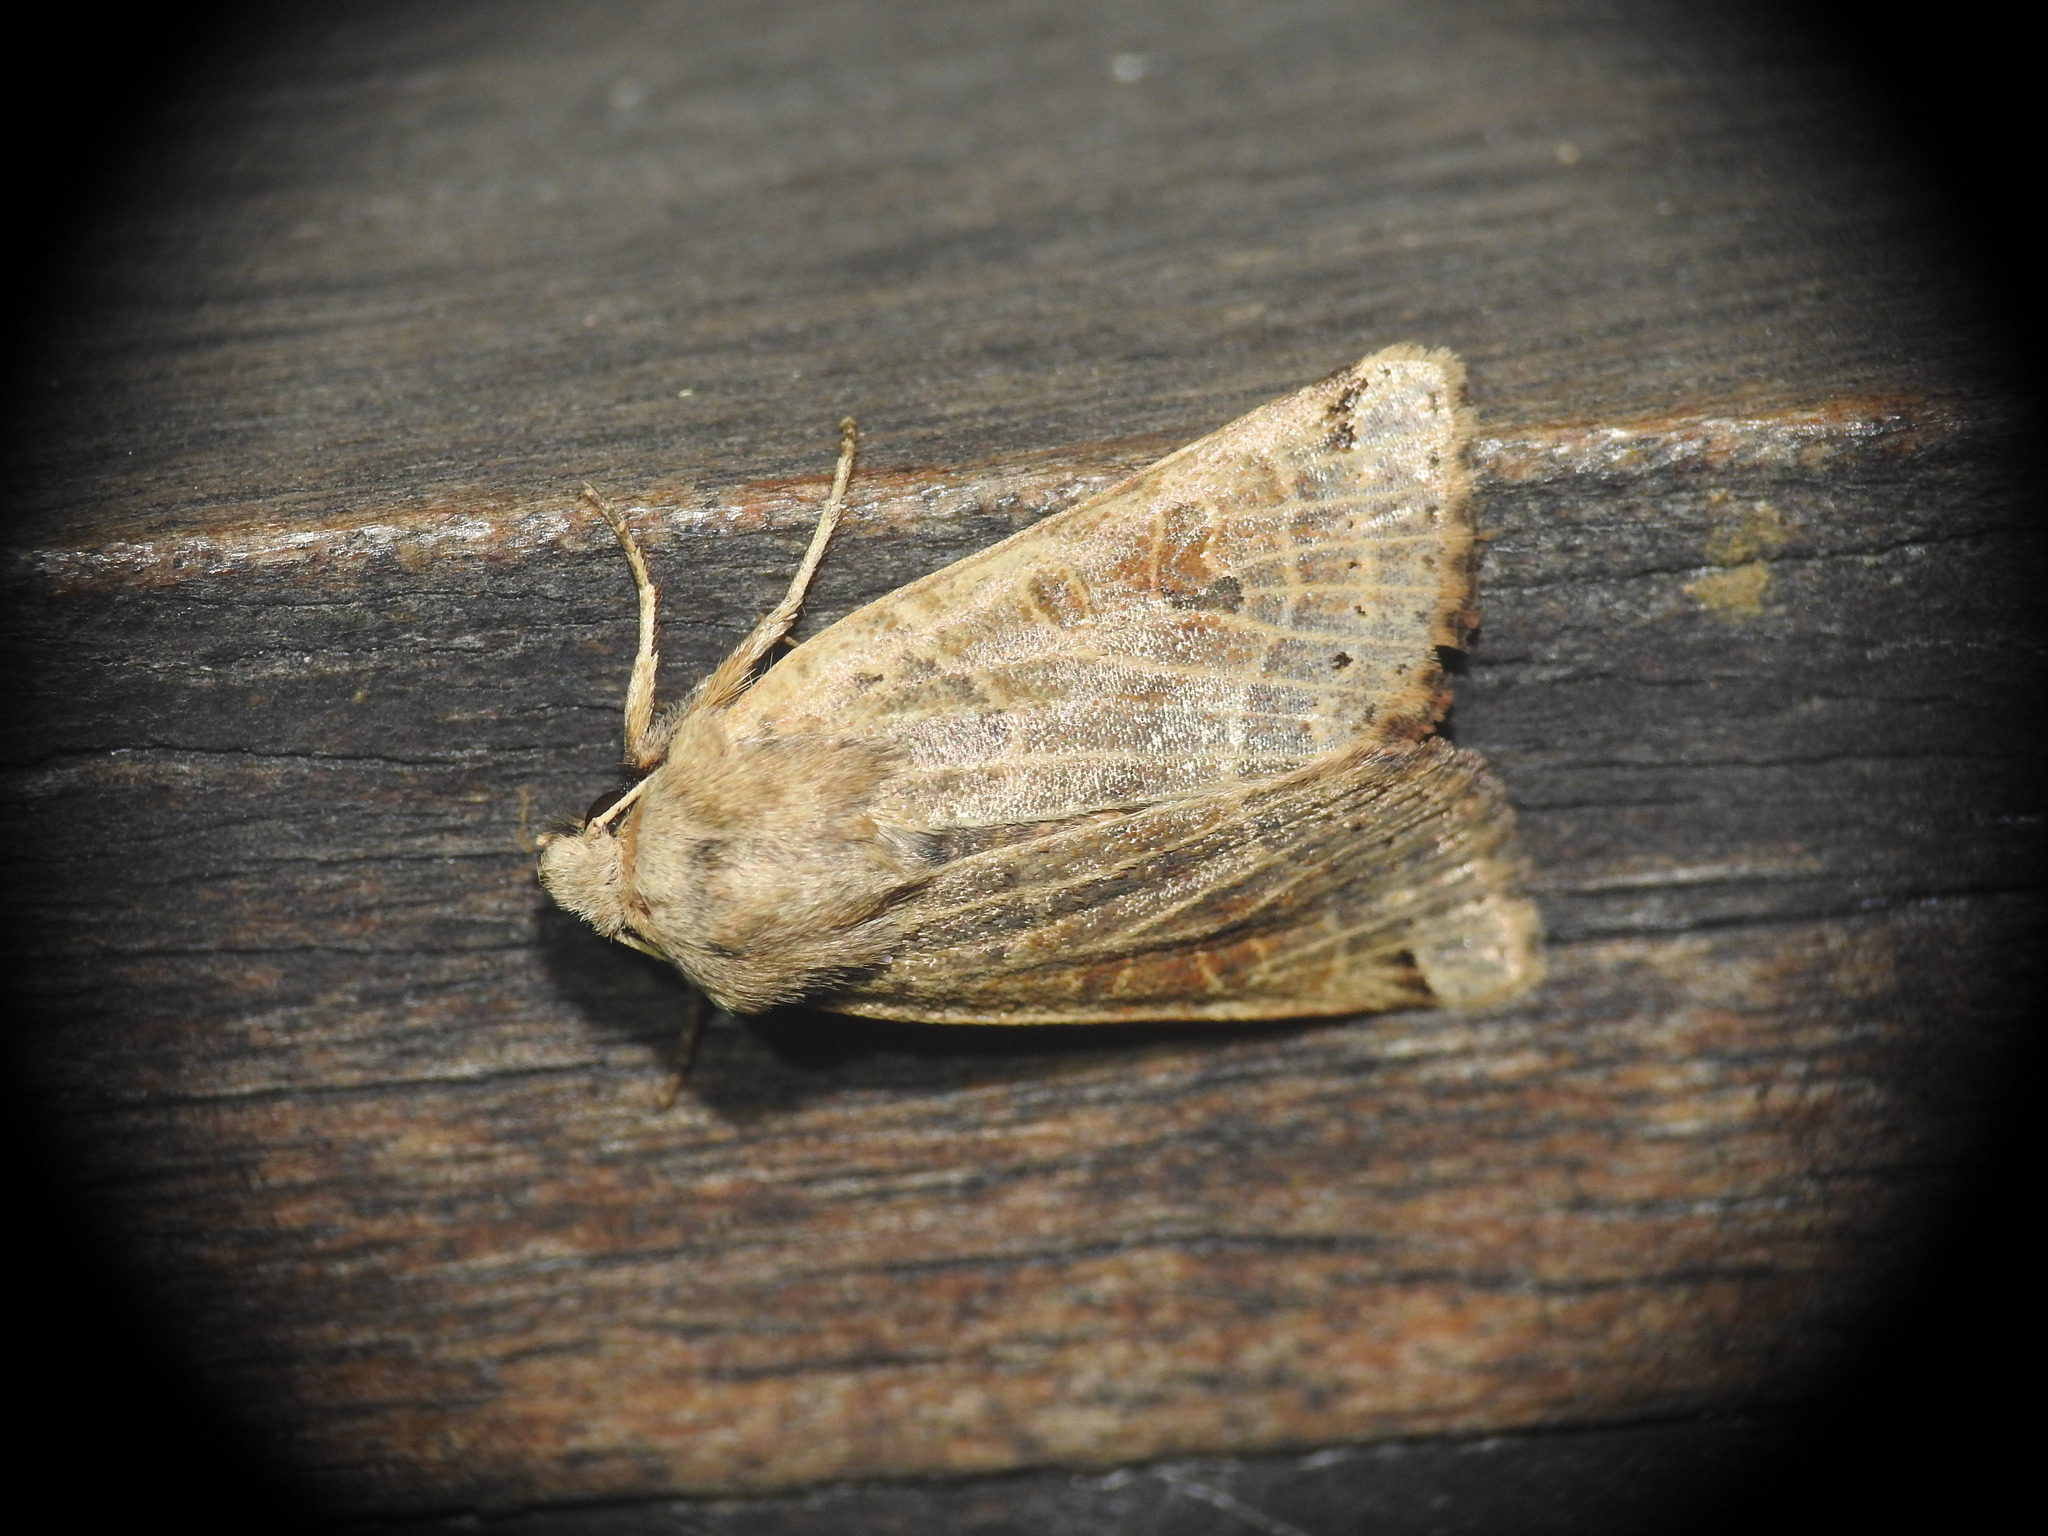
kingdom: Animalia
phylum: Arthropoda
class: Insecta
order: Lepidoptera
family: Noctuidae
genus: Agrochola
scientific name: Agrochola lunosa
